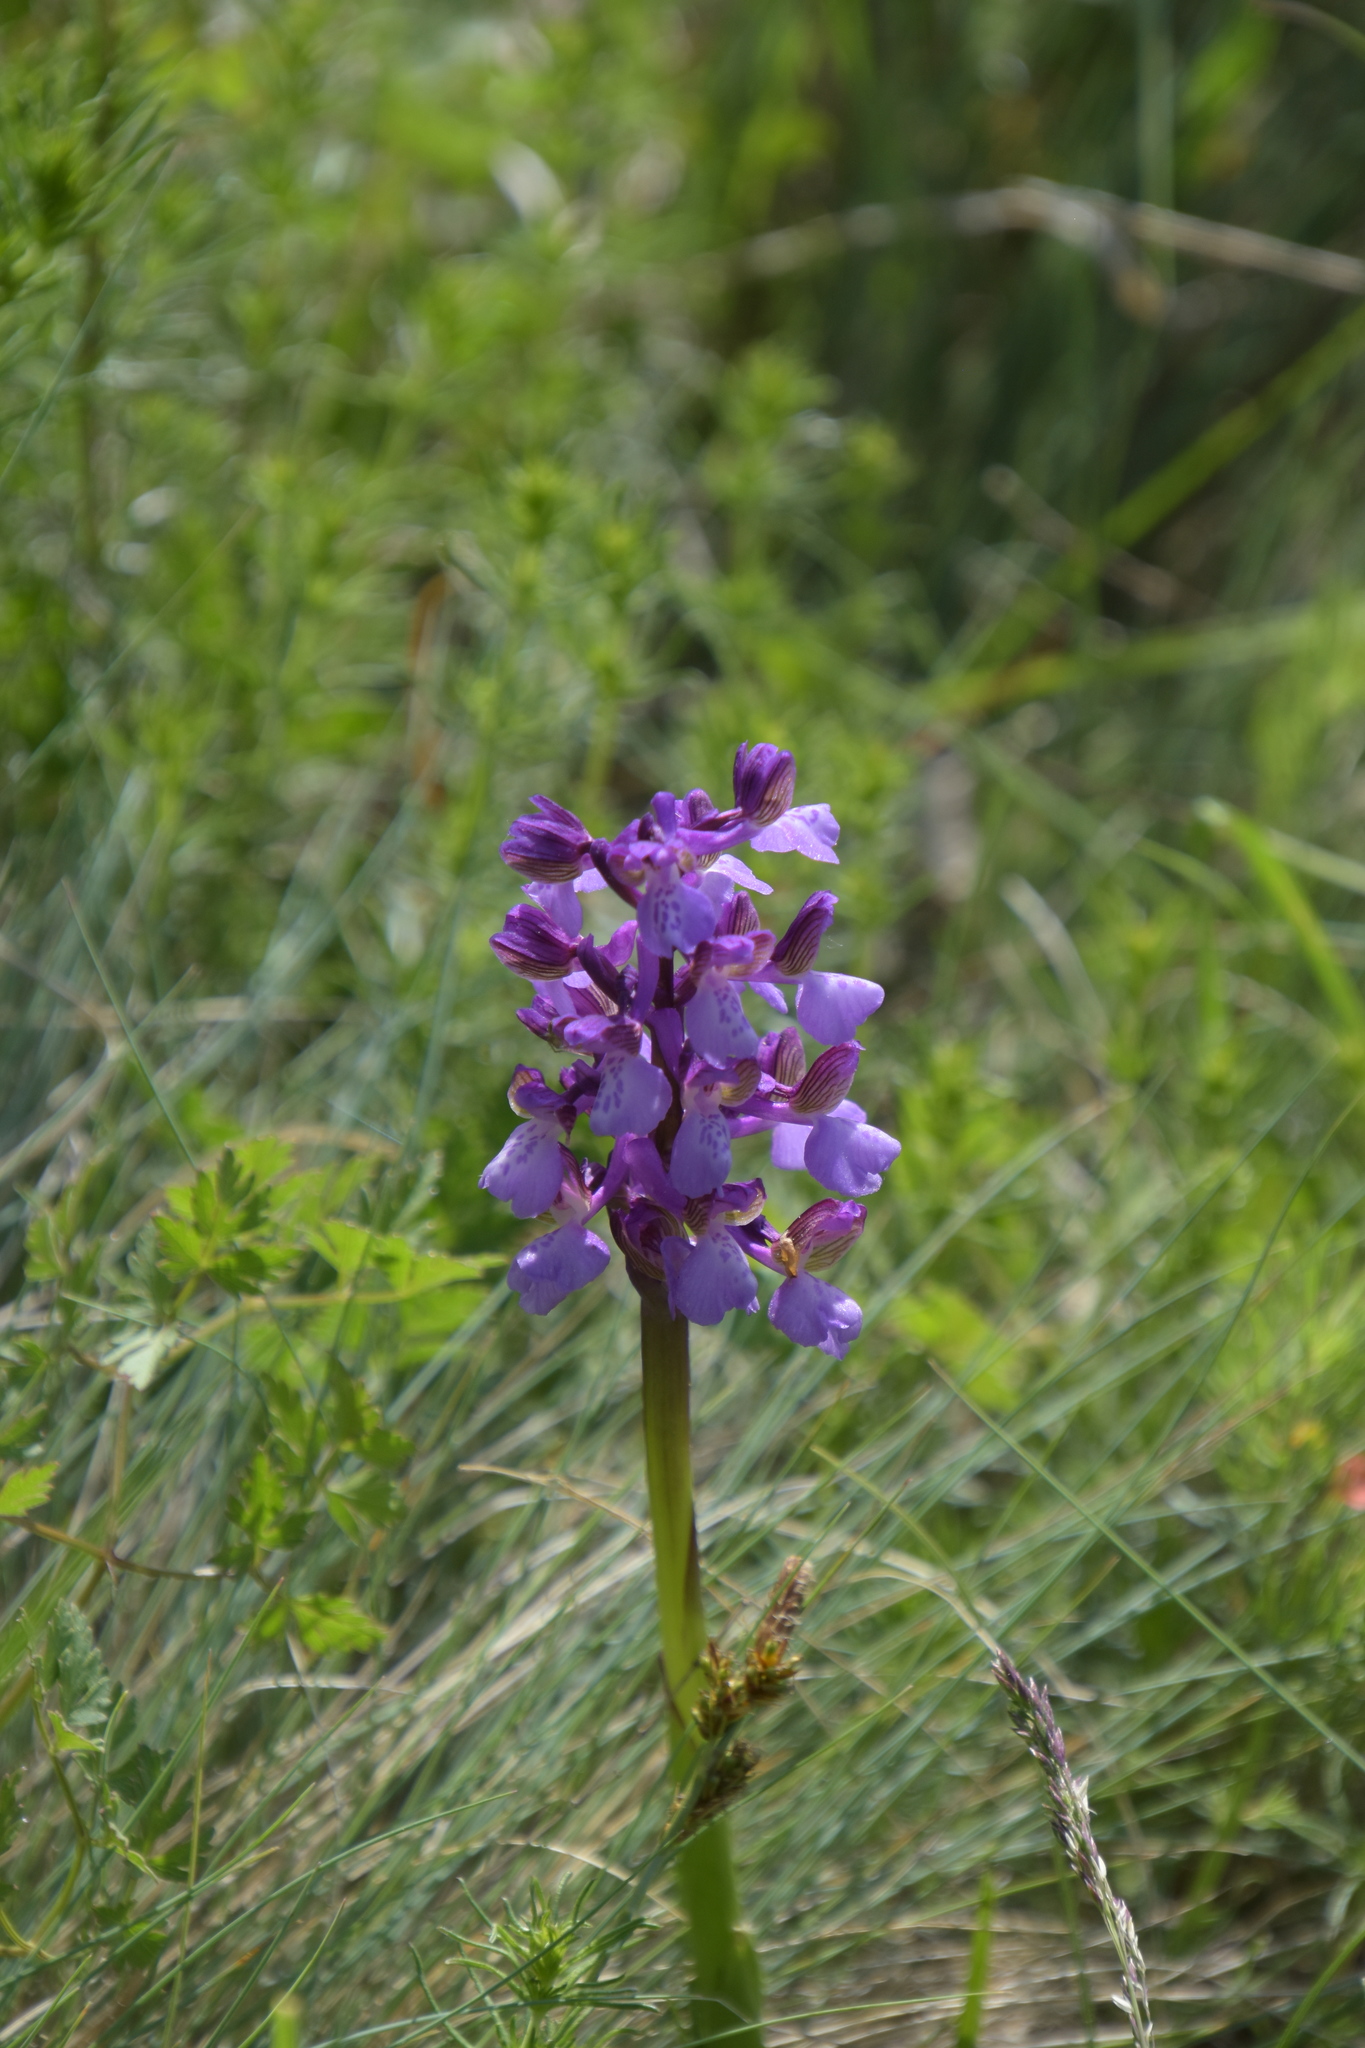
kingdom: Plantae
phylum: Tracheophyta
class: Liliopsida
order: Asparagales
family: Orchidaceae
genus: Anacamptis
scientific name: Anacamptis morio
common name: Green-winged orchid
